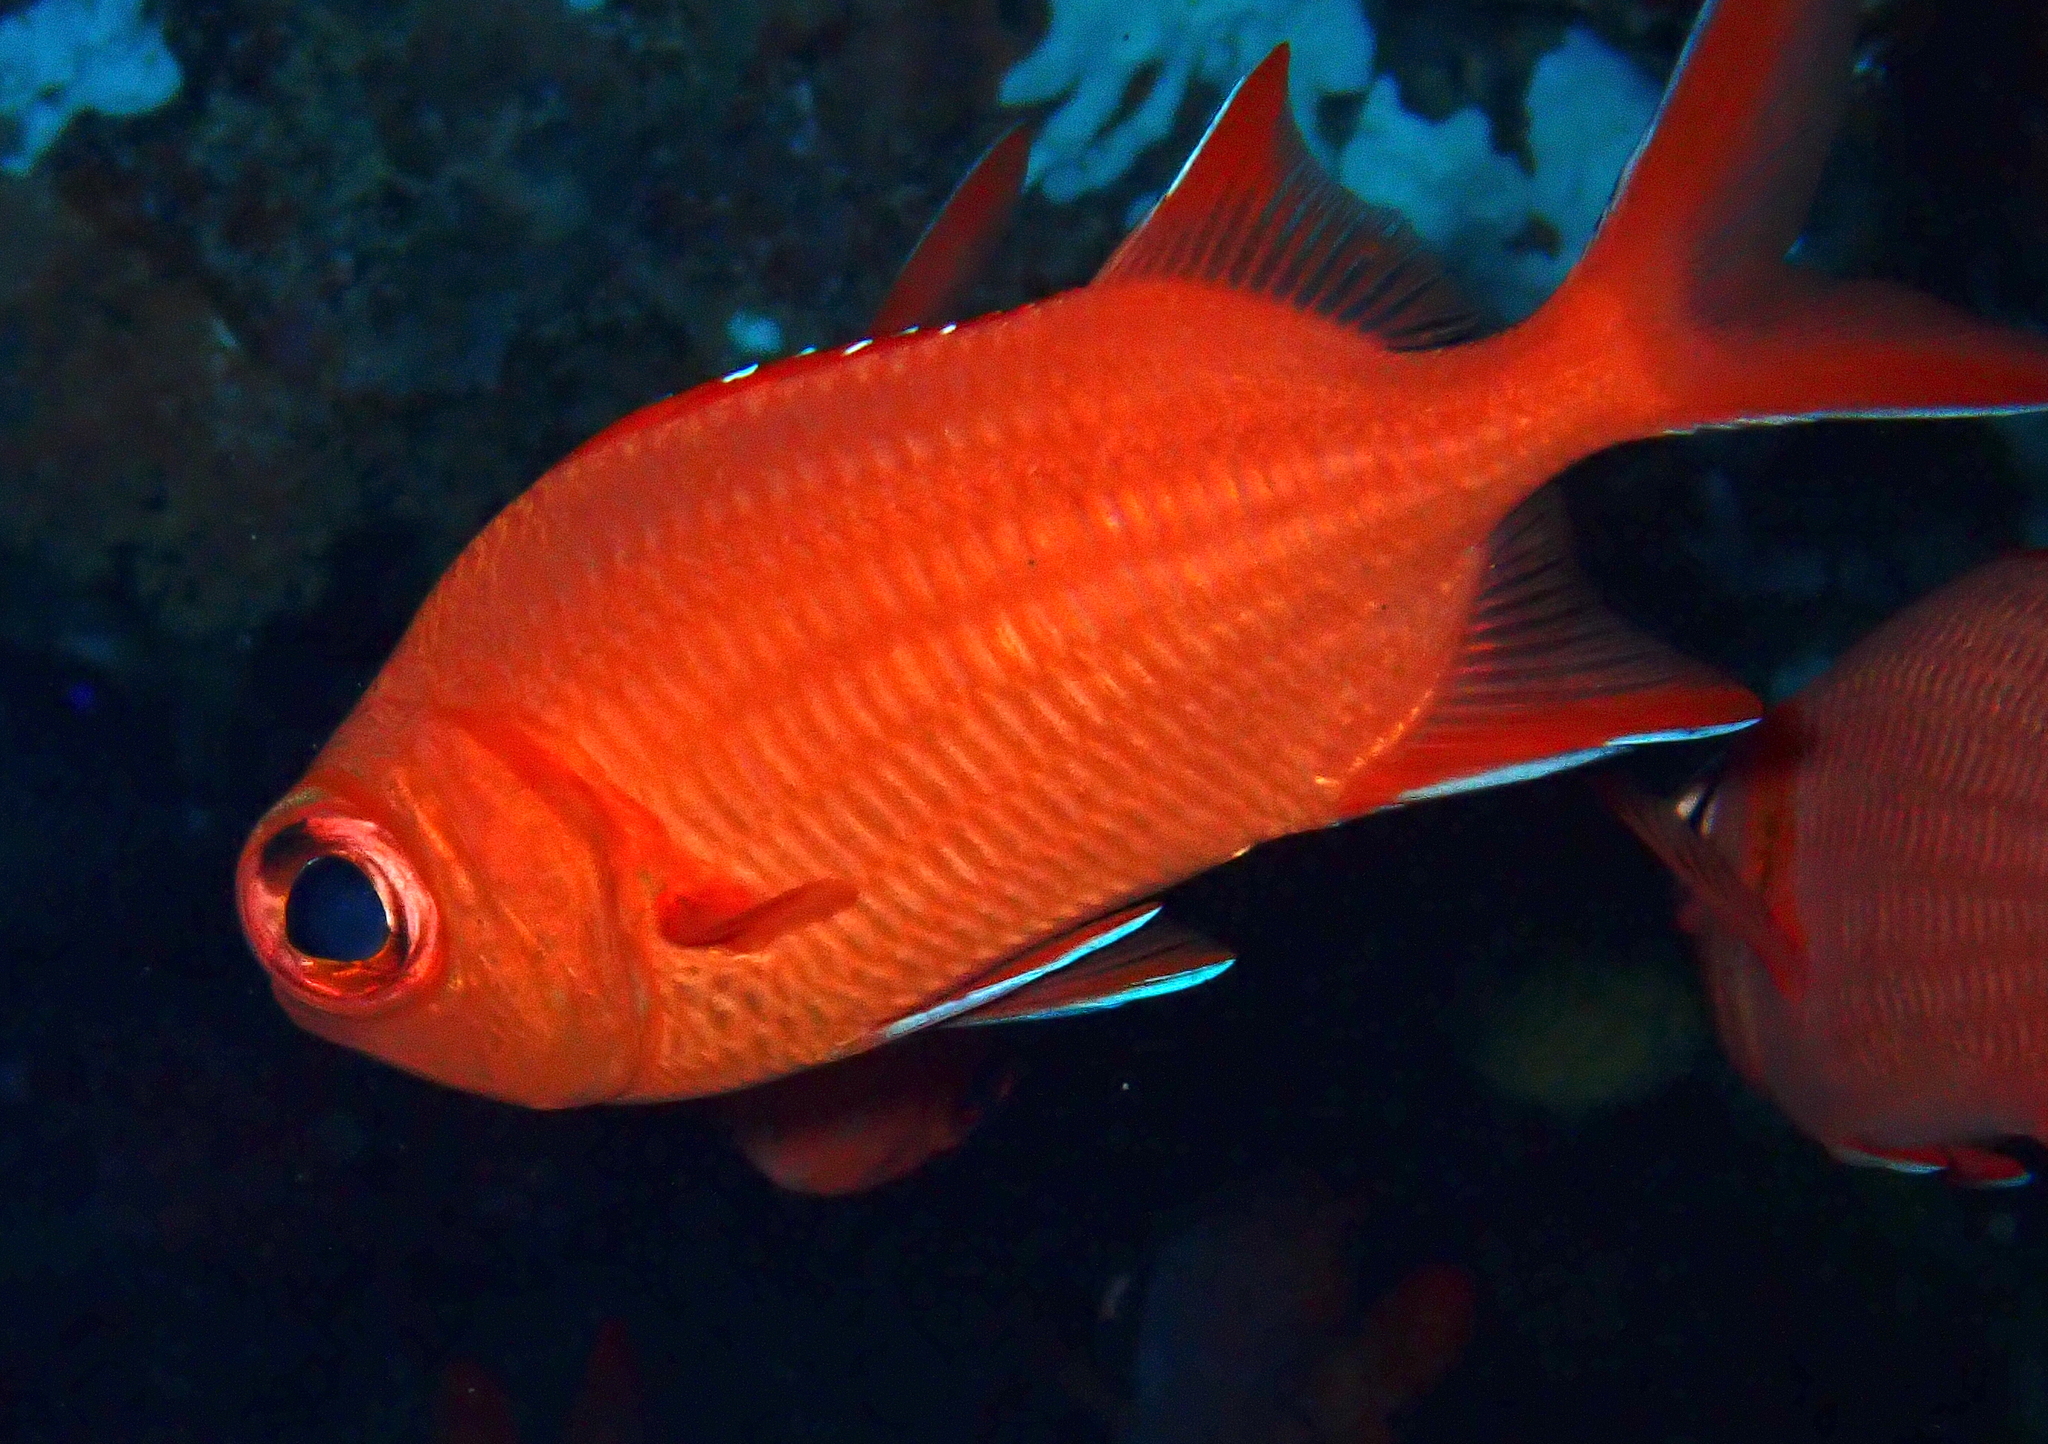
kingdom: Animalia
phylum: Chordata
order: Beryciformes
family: Holocentridae
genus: Myripristis
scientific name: Myripristis vittata
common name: Immaculate squirrelfish
